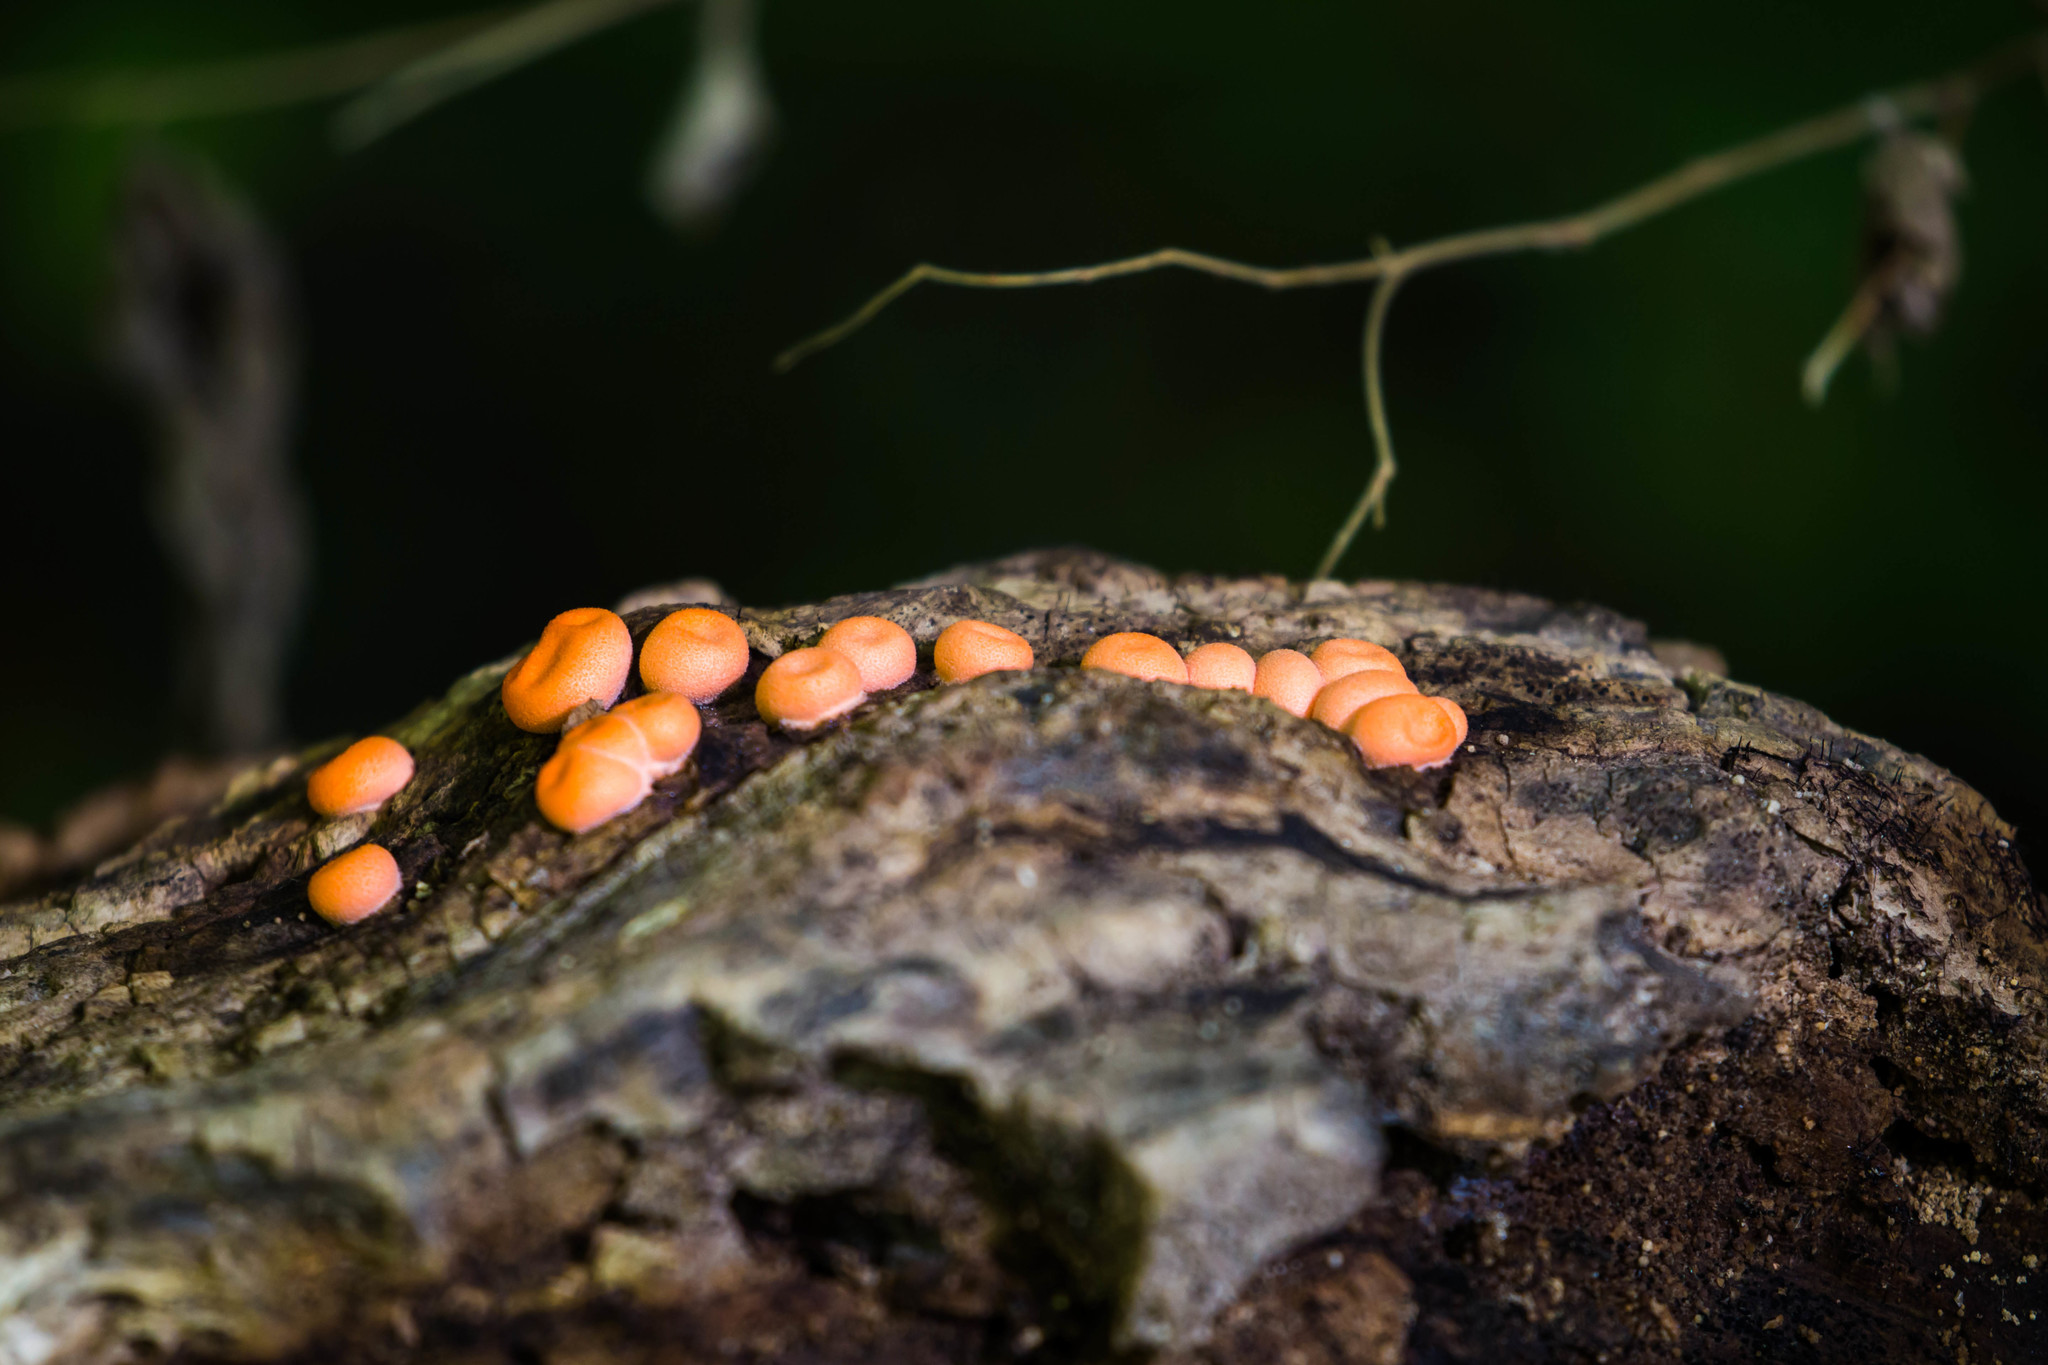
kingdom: Protozoa
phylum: Mycetozoa
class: Myxomycetes
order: Cribrariales
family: Tubiferaceae
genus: Lycogala
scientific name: Lycogala epidendrum
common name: Wolf's milk
